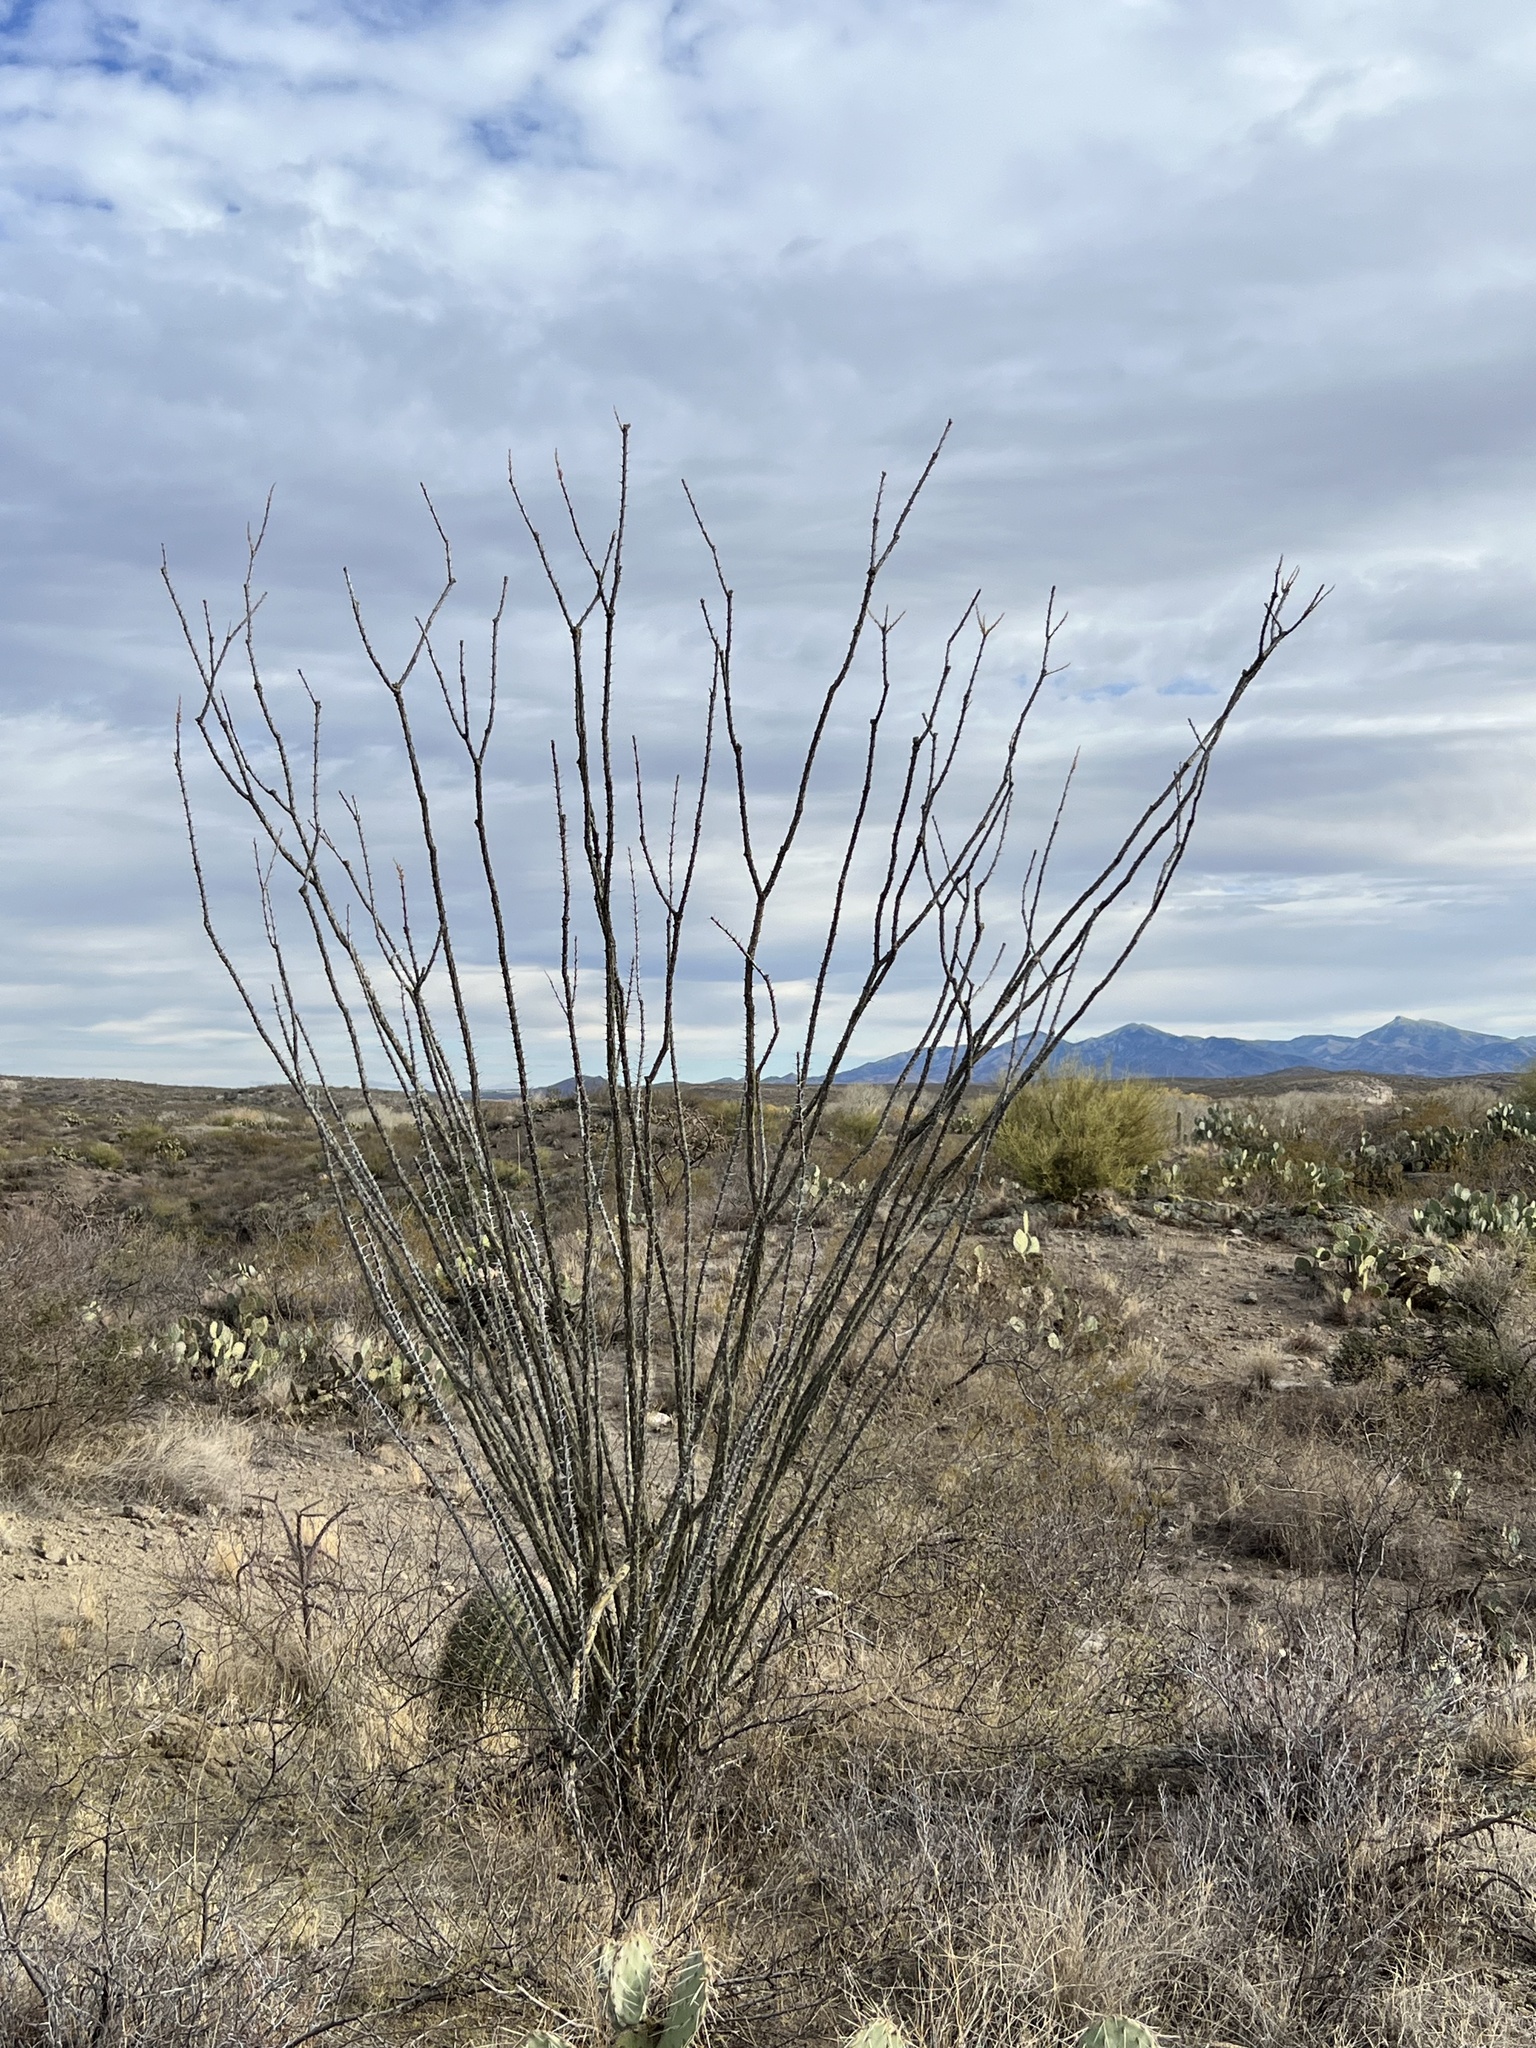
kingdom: Plantae
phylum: Tracheophyta
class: Magnoliopsida
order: Ericales
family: Fouquieriaceae
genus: Fouquieria
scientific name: Fouquieria splendens
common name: Vine-cactus
